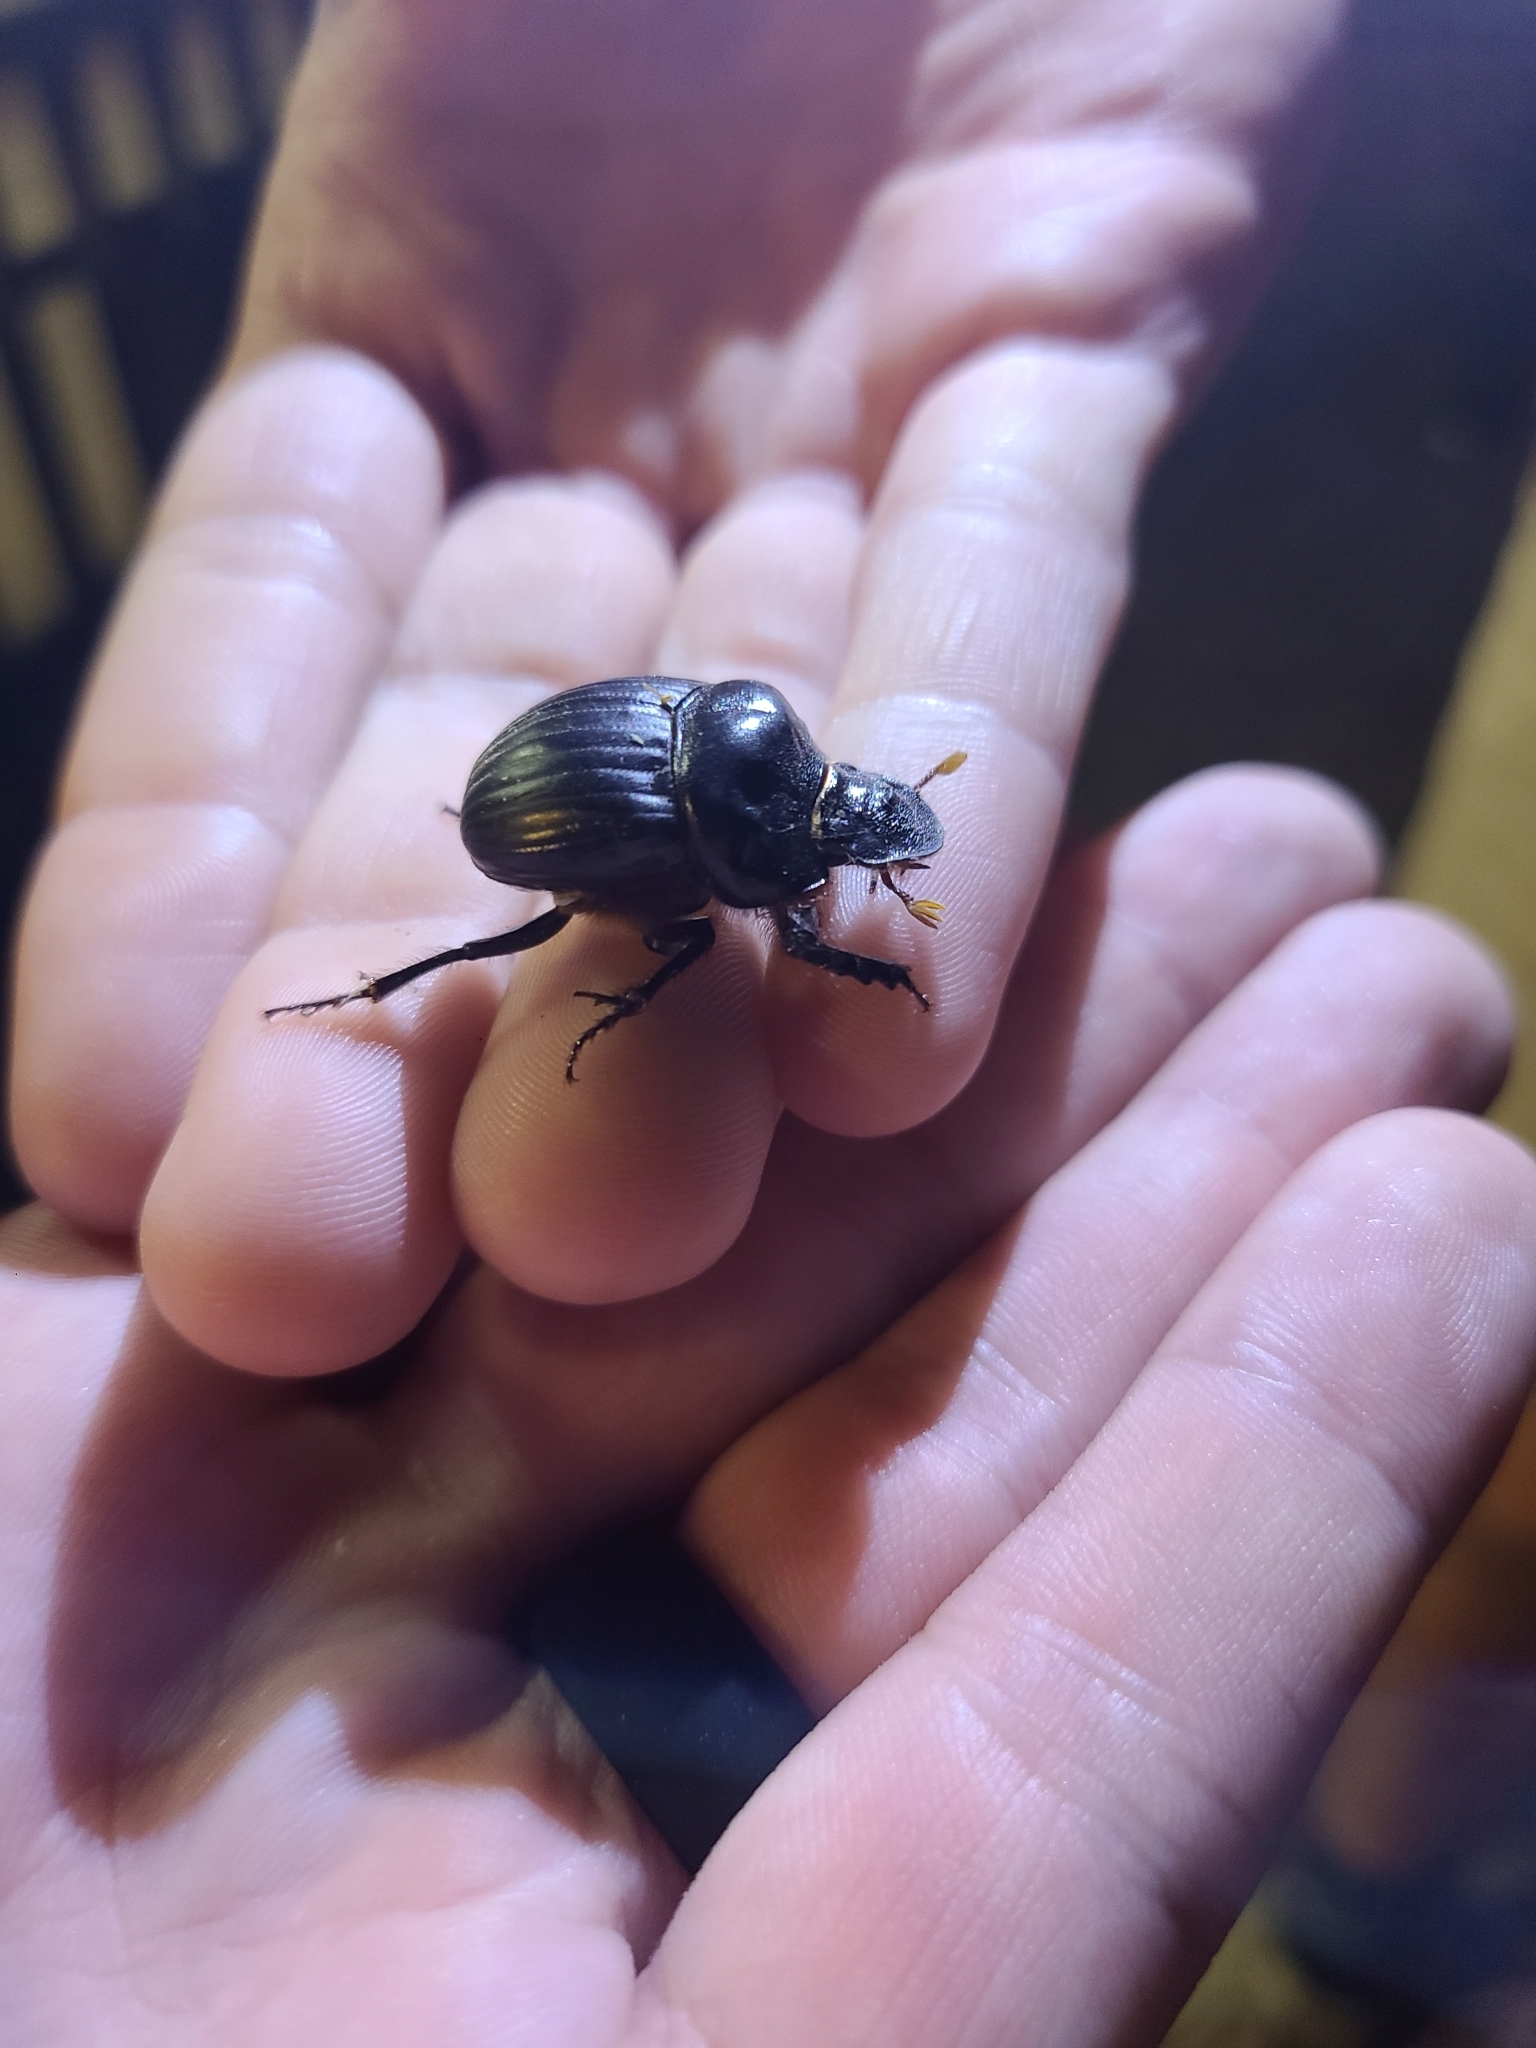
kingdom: Animalia
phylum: Arthropoda
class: Insecta
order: Coleoptera
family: Scarabaeidae
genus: Dichotomius
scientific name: Dichotomius carolinus
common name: Carolina copris
